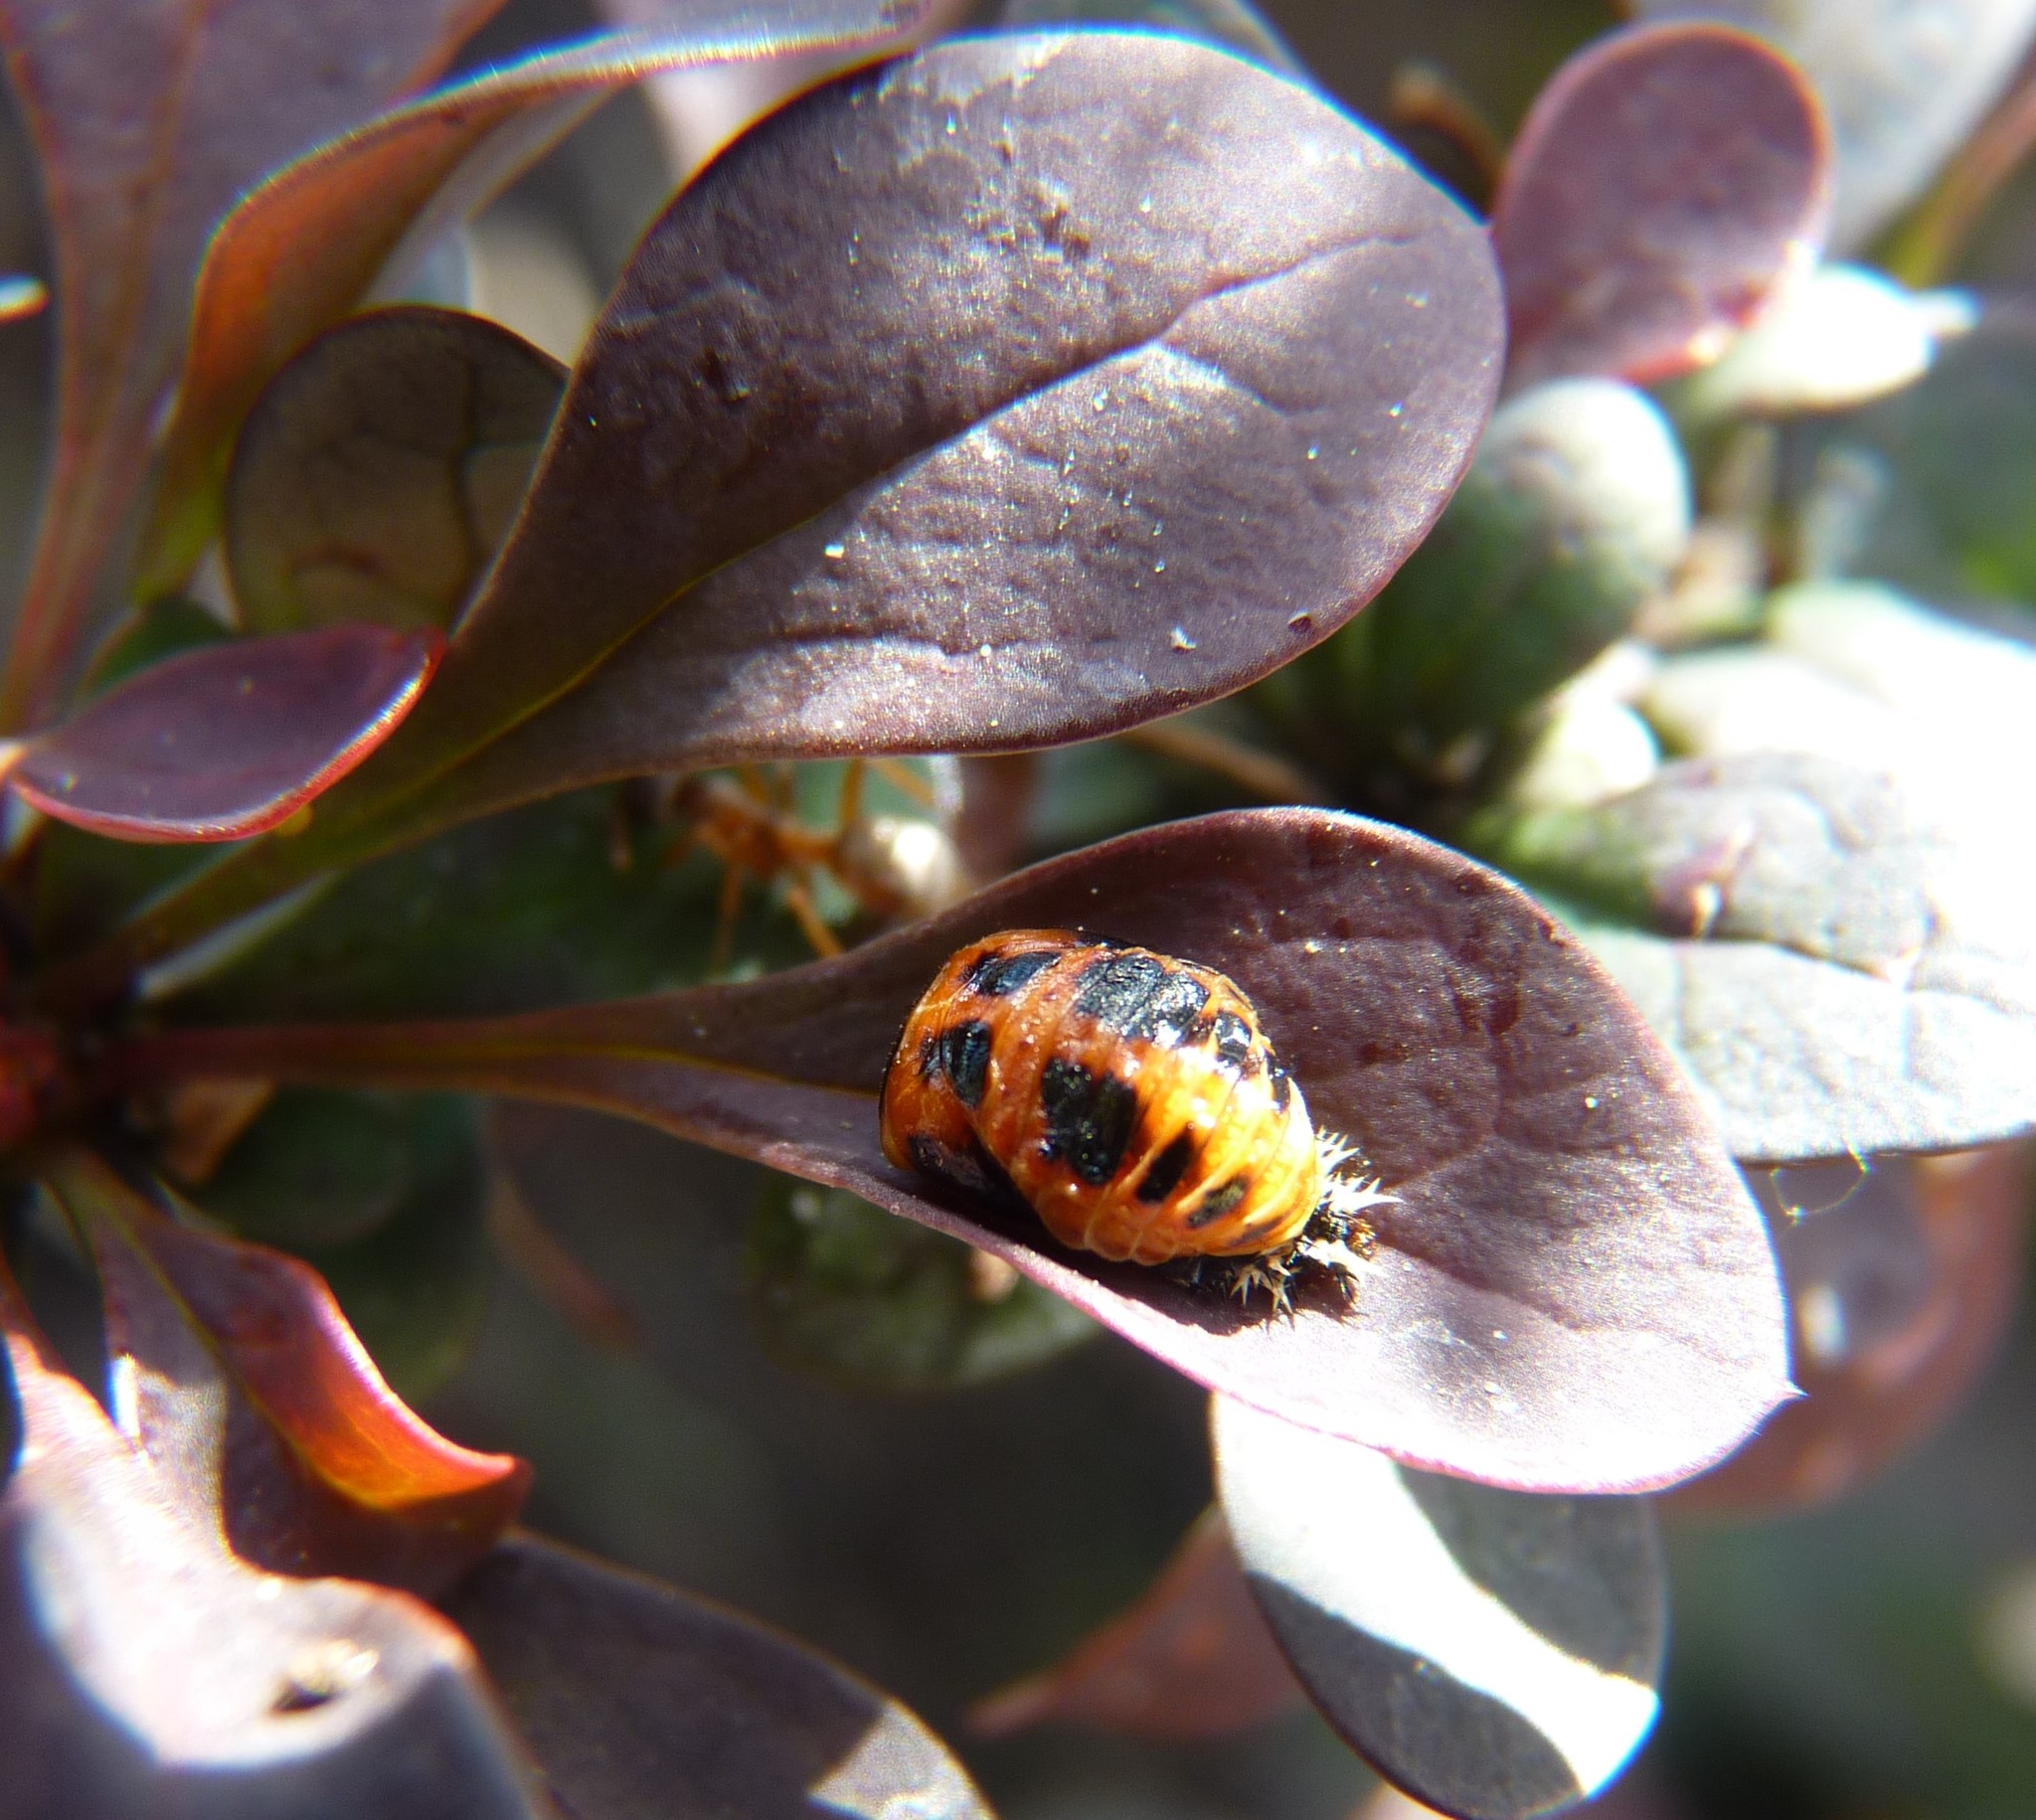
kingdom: Animalia
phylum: Arthropoda
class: Insecta
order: Coleoptera
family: Coccinellidae
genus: Harmonia
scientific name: Harmonia axyridis
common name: Harlequin ladybird
